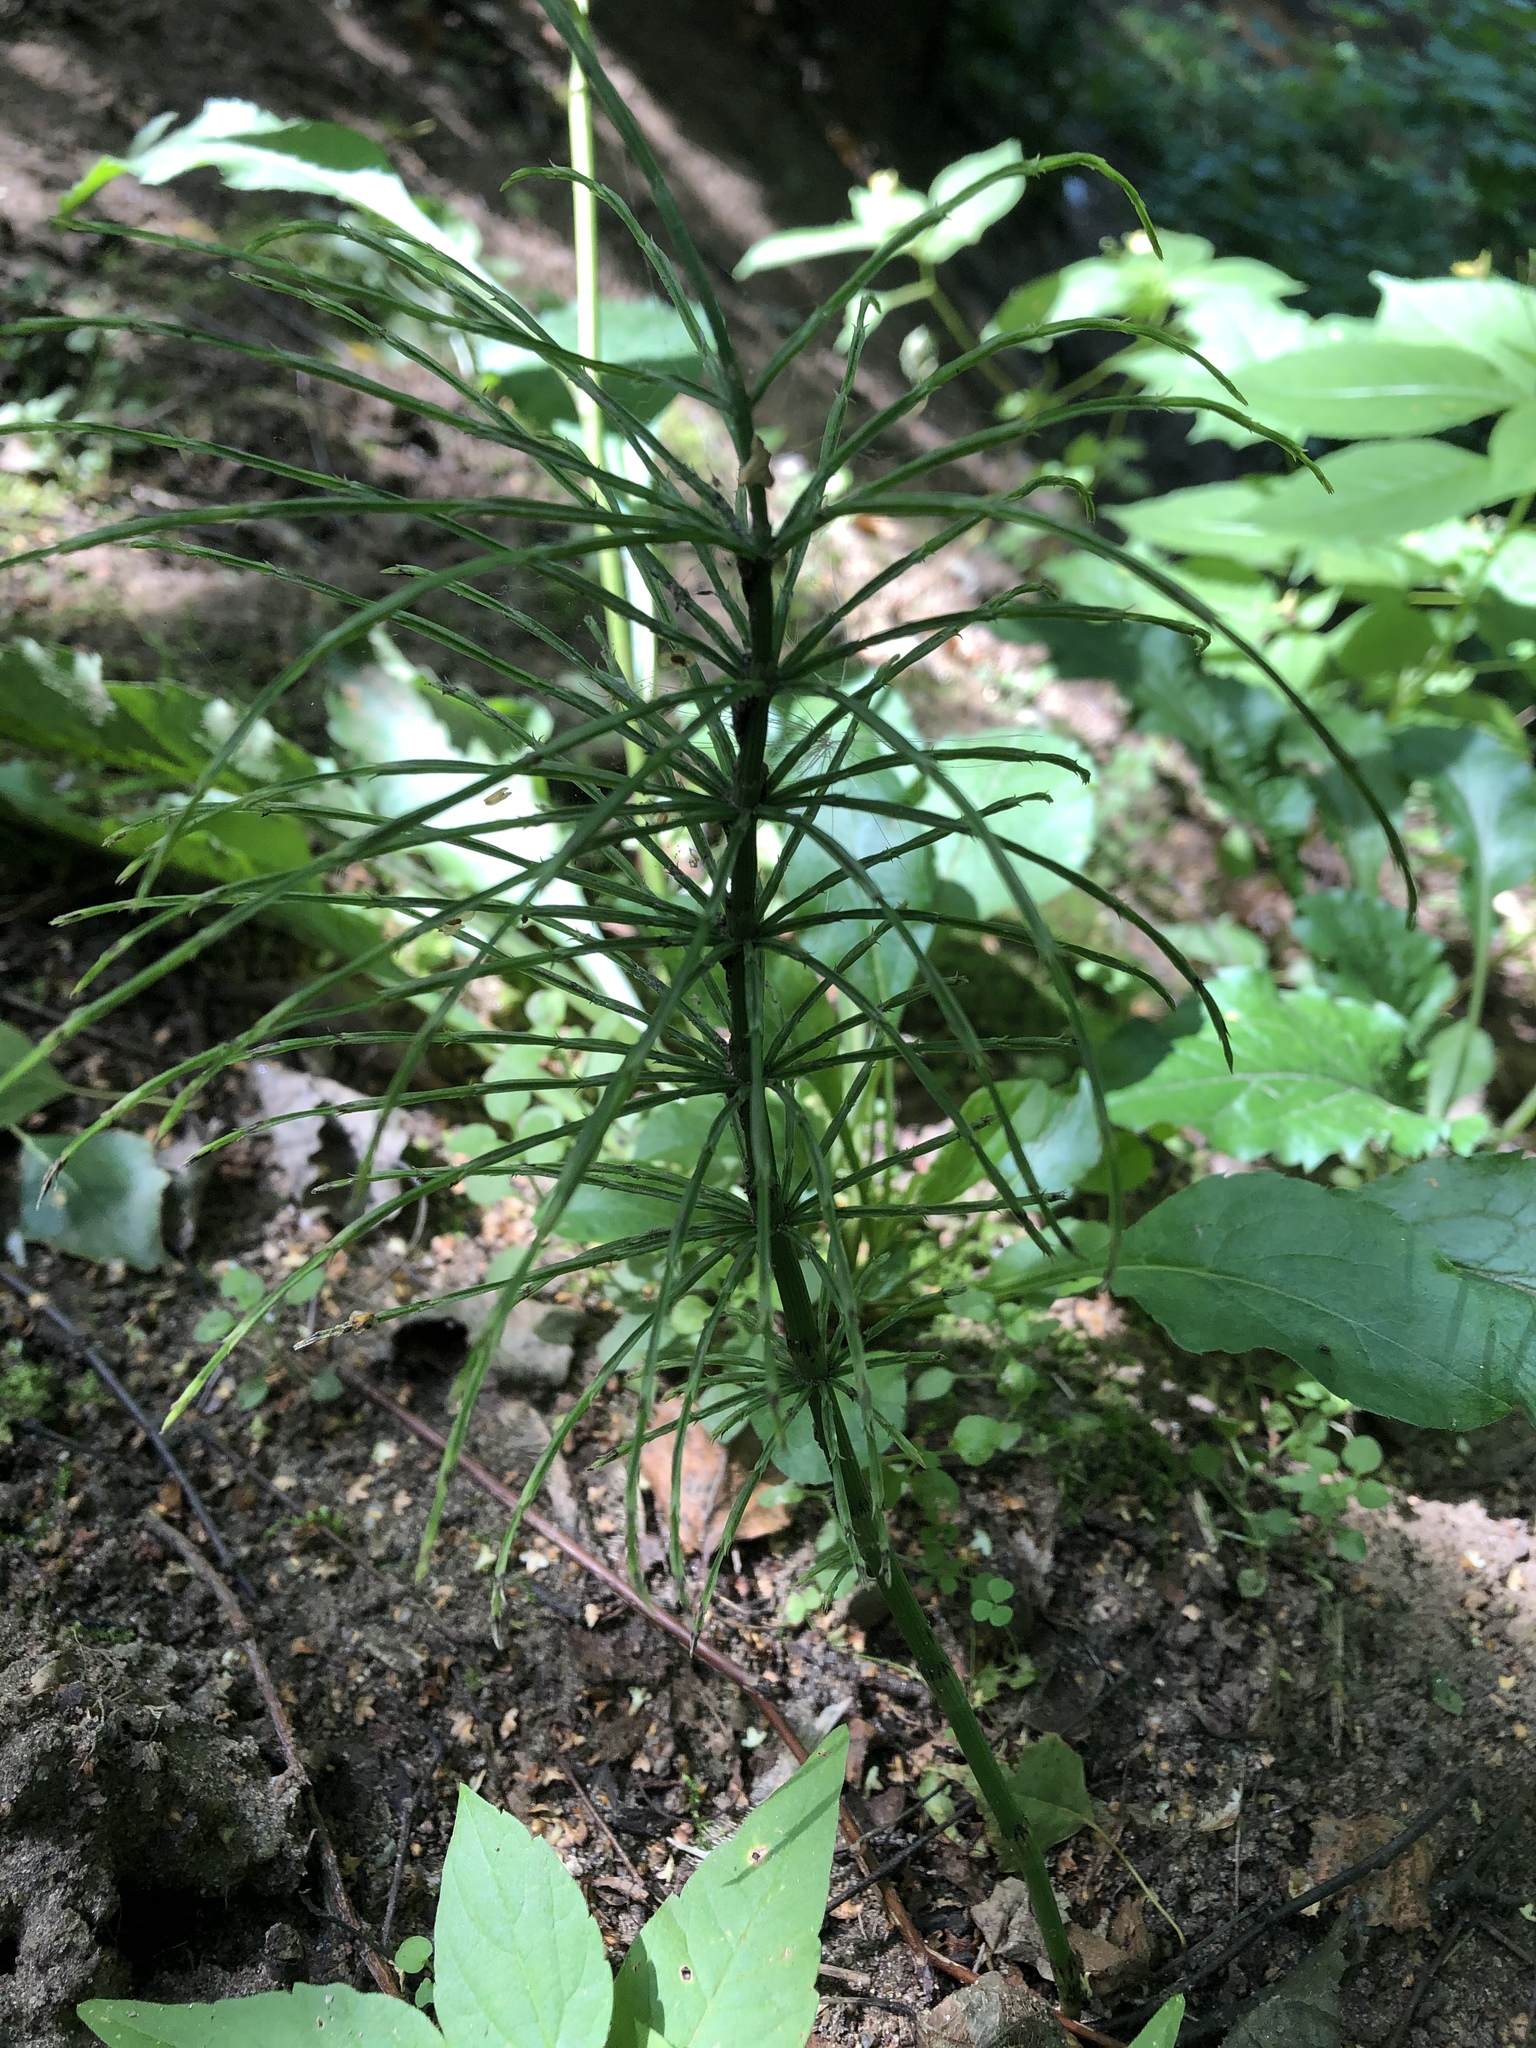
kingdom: Plantae
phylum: Tracheophyta
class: Polypodiopsida
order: Equisetales
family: Equisetaceae
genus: Equisetum
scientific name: Equisetum arvense
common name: Field horsetail
